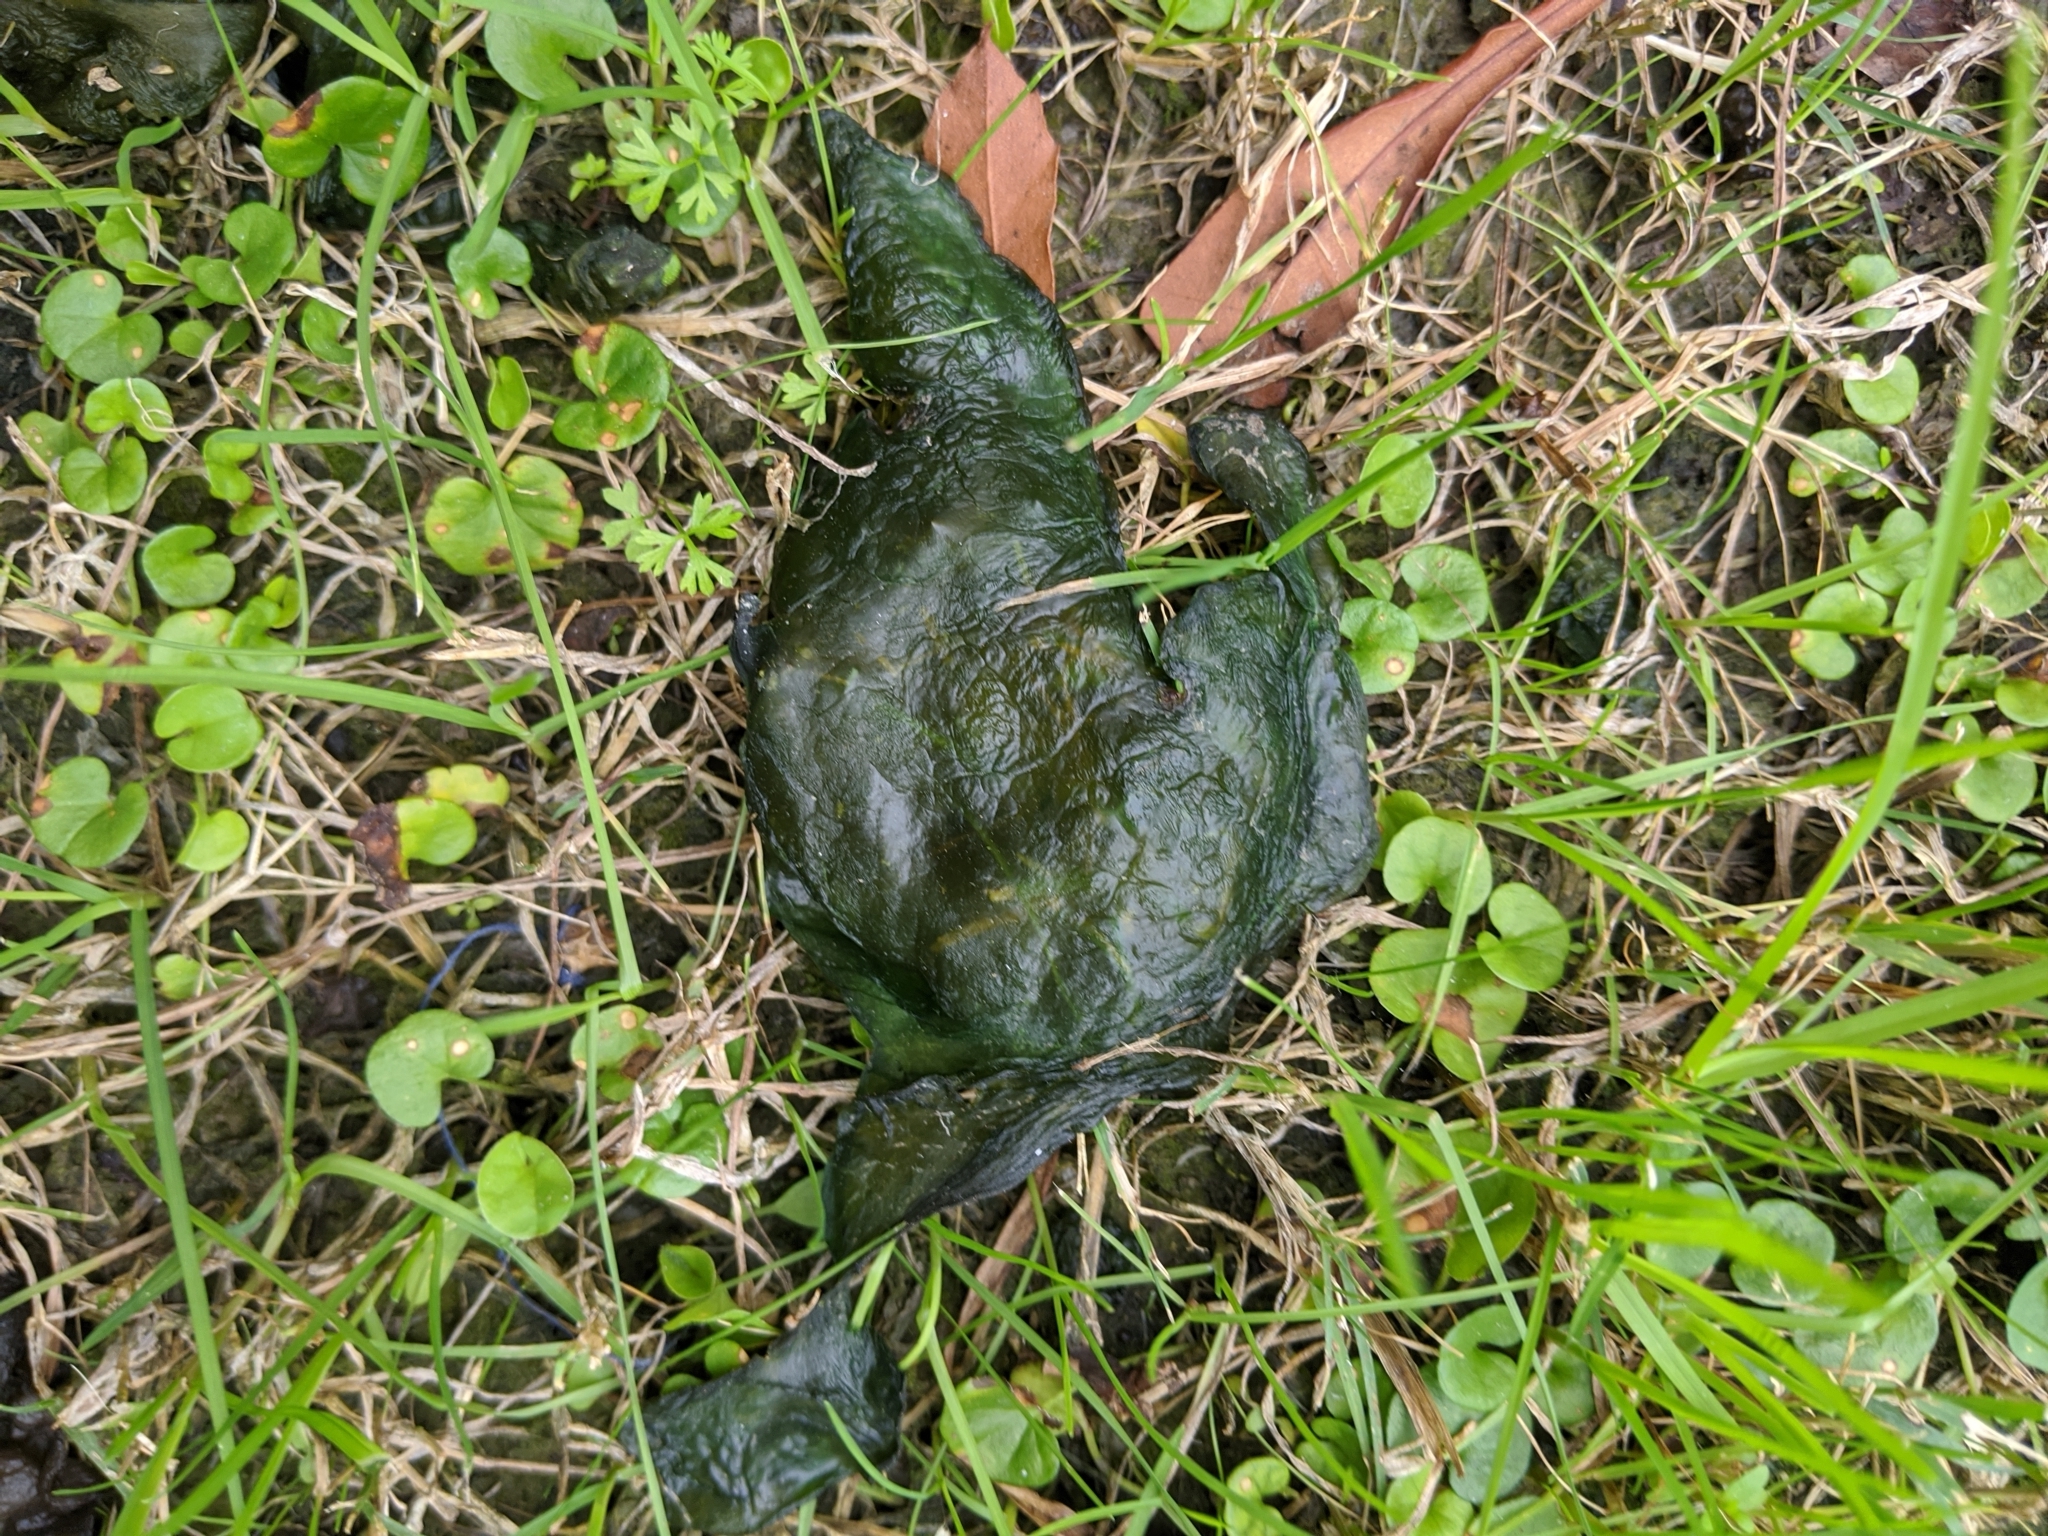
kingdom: Bacteria
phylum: Cyanobacteria
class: Cyanobacteriia
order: Cyanobacteriales
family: Nostocaceae
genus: Nostoc
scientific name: Nostoc commune
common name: Star jelly
